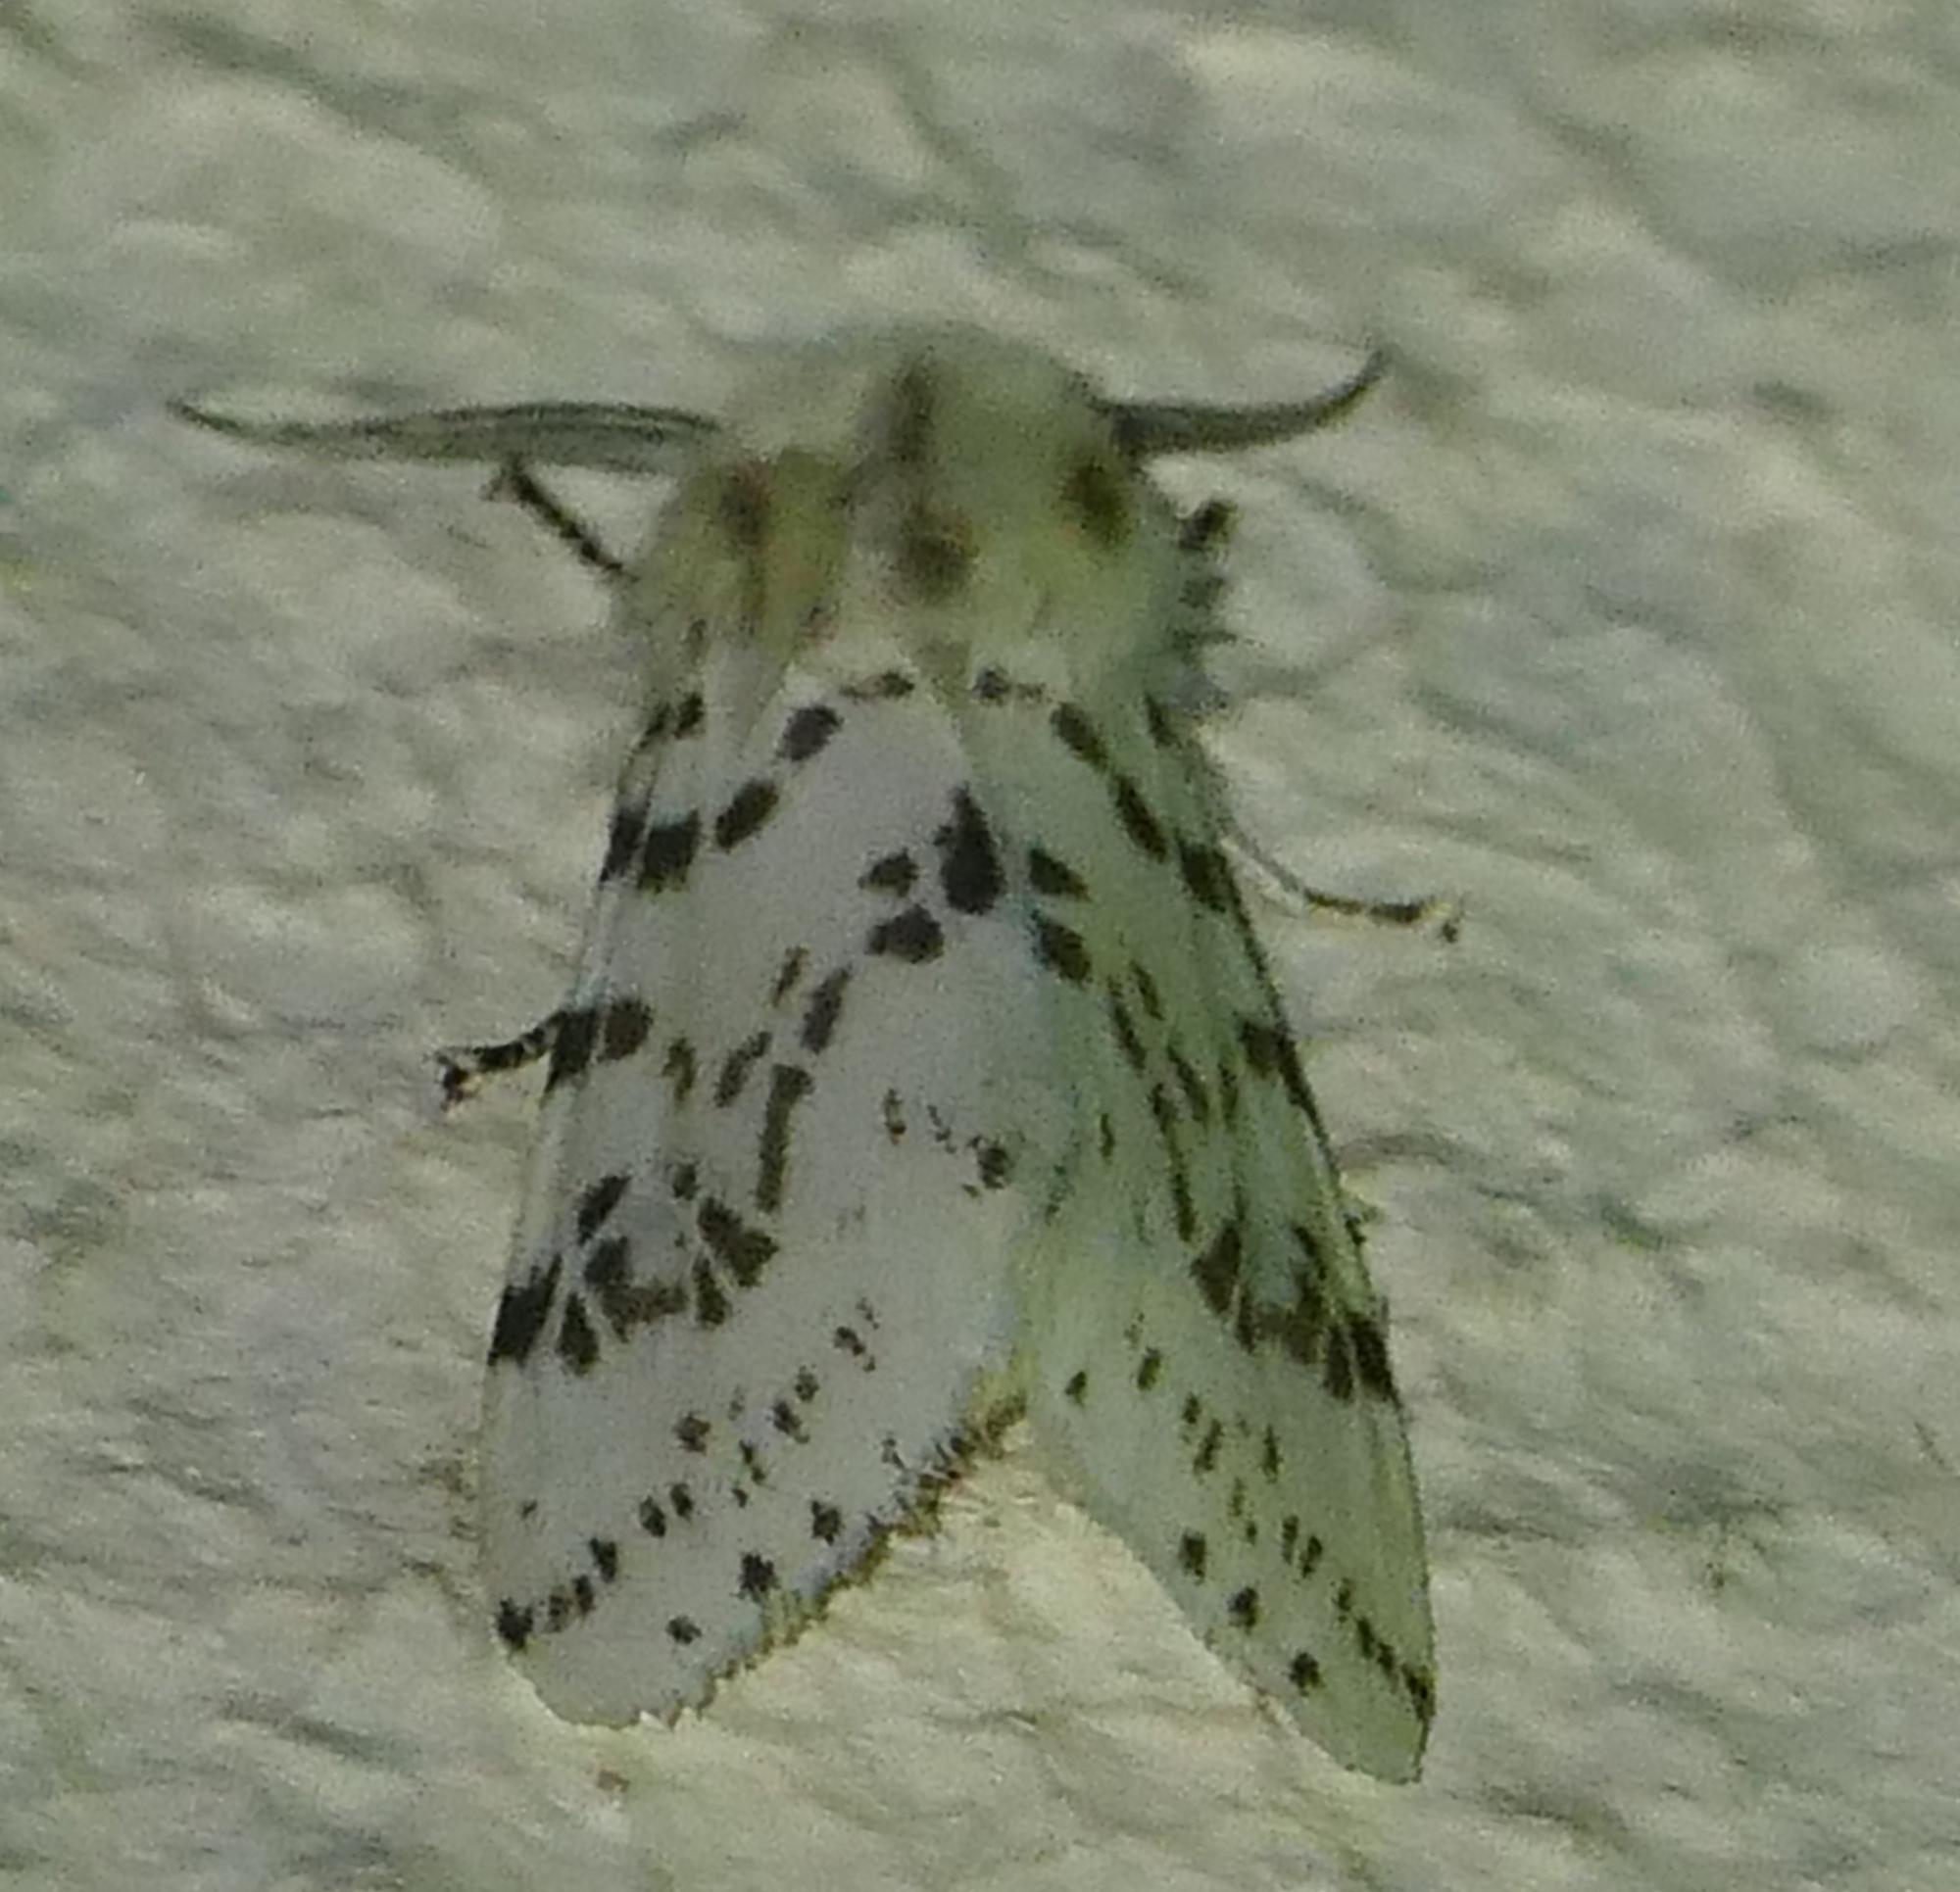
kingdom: Animalia
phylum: Arthropoda
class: Insecta
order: Lepidoptera
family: Erebidae
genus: Hyphantria
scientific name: Hyphantria cunea
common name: American white moth
